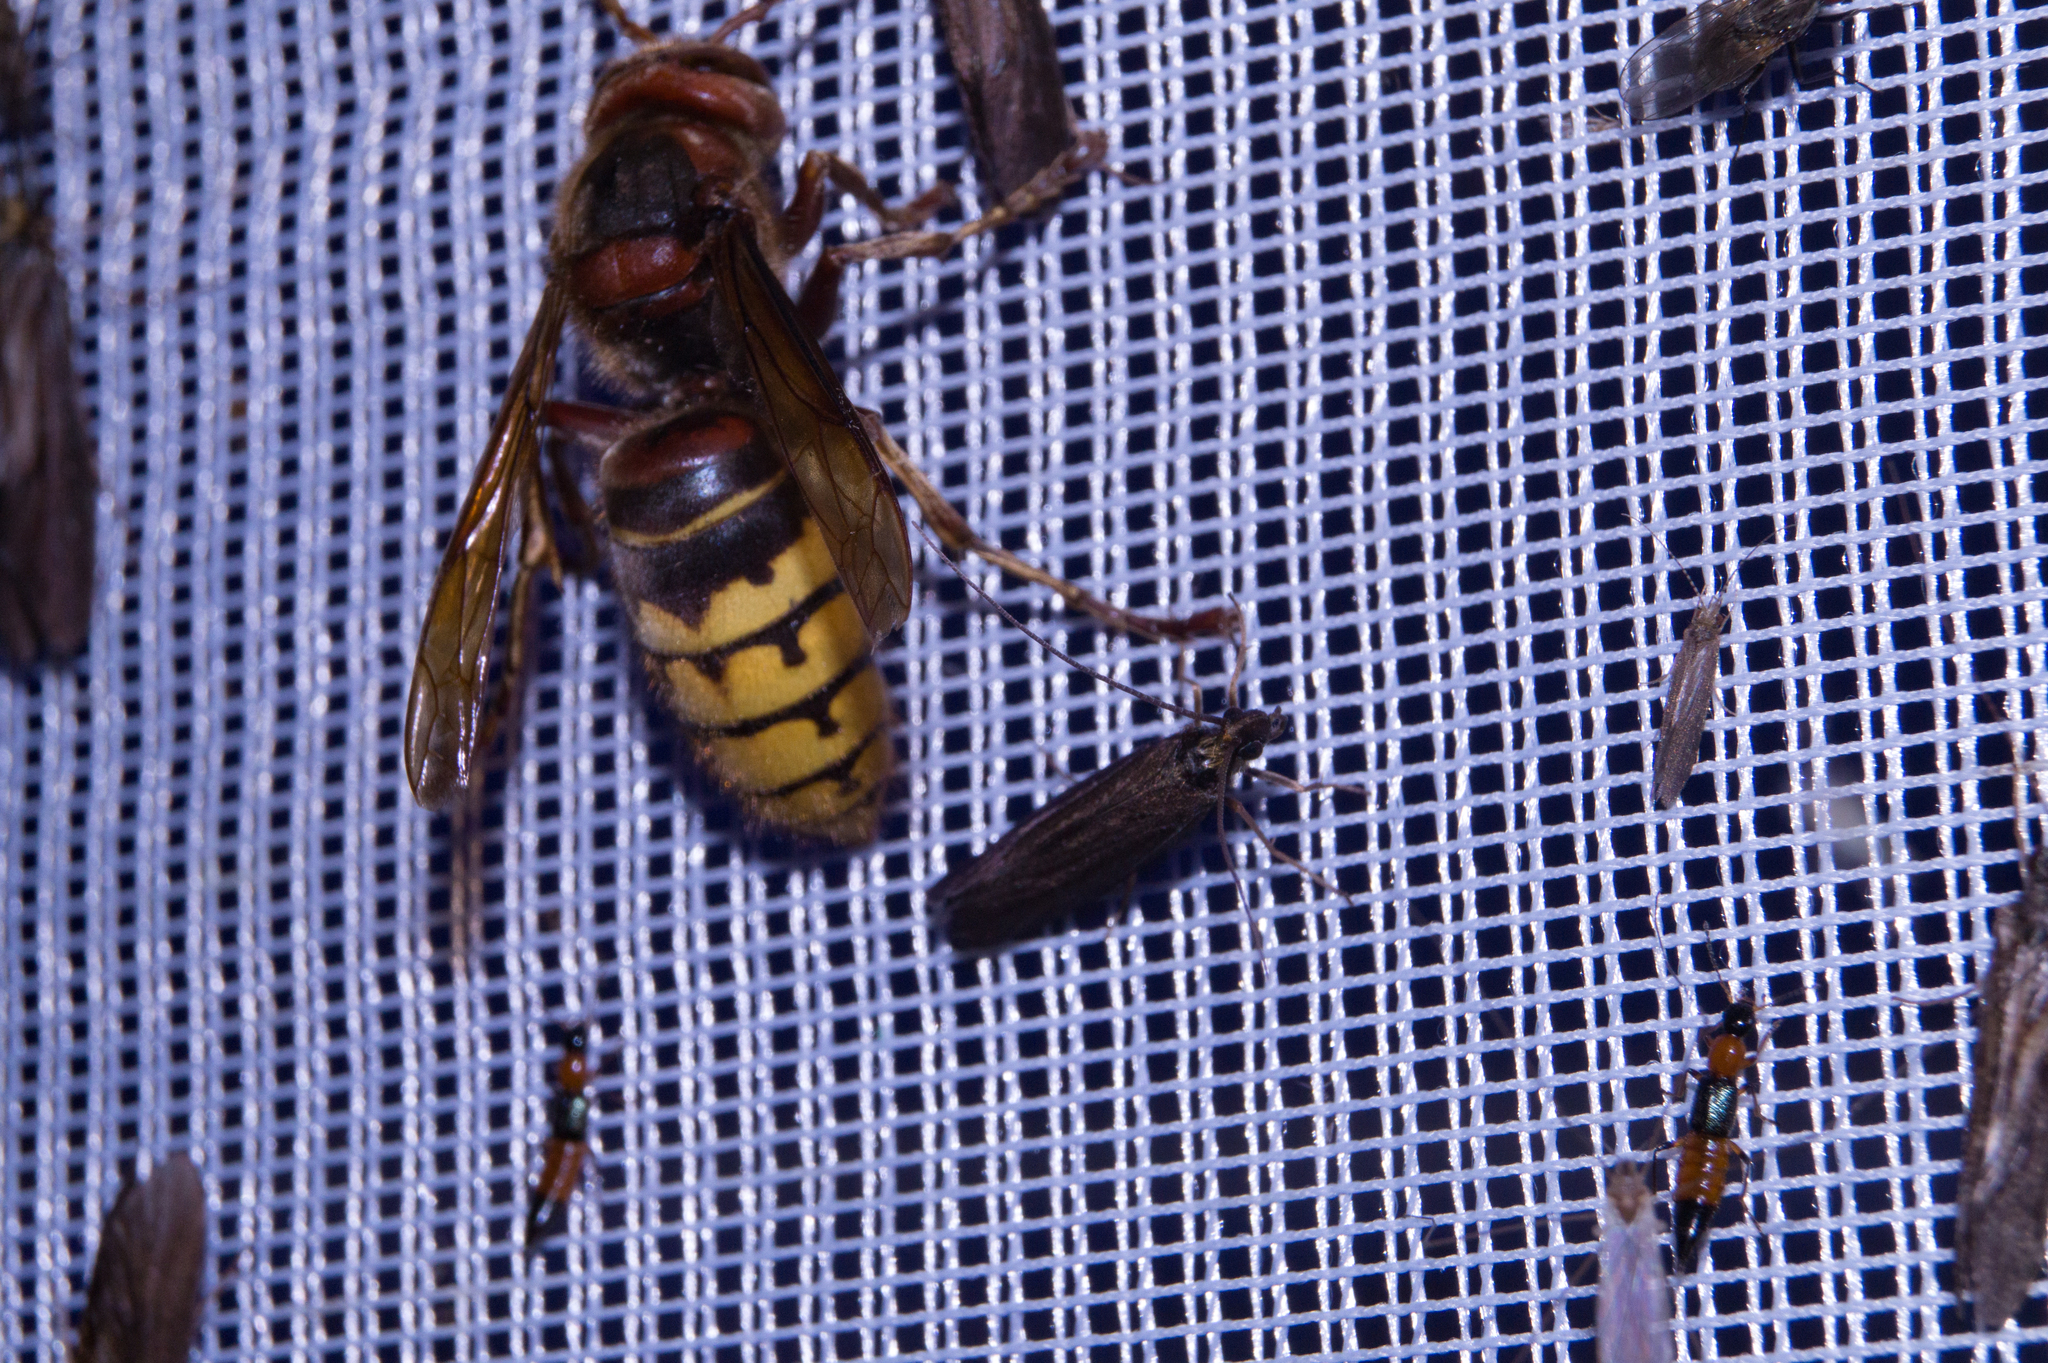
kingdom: Animalia
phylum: Arthropoda
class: Insecta
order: Hymenoptera
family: Vespidae
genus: Vespa
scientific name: Vespa crabro
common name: Hornet
